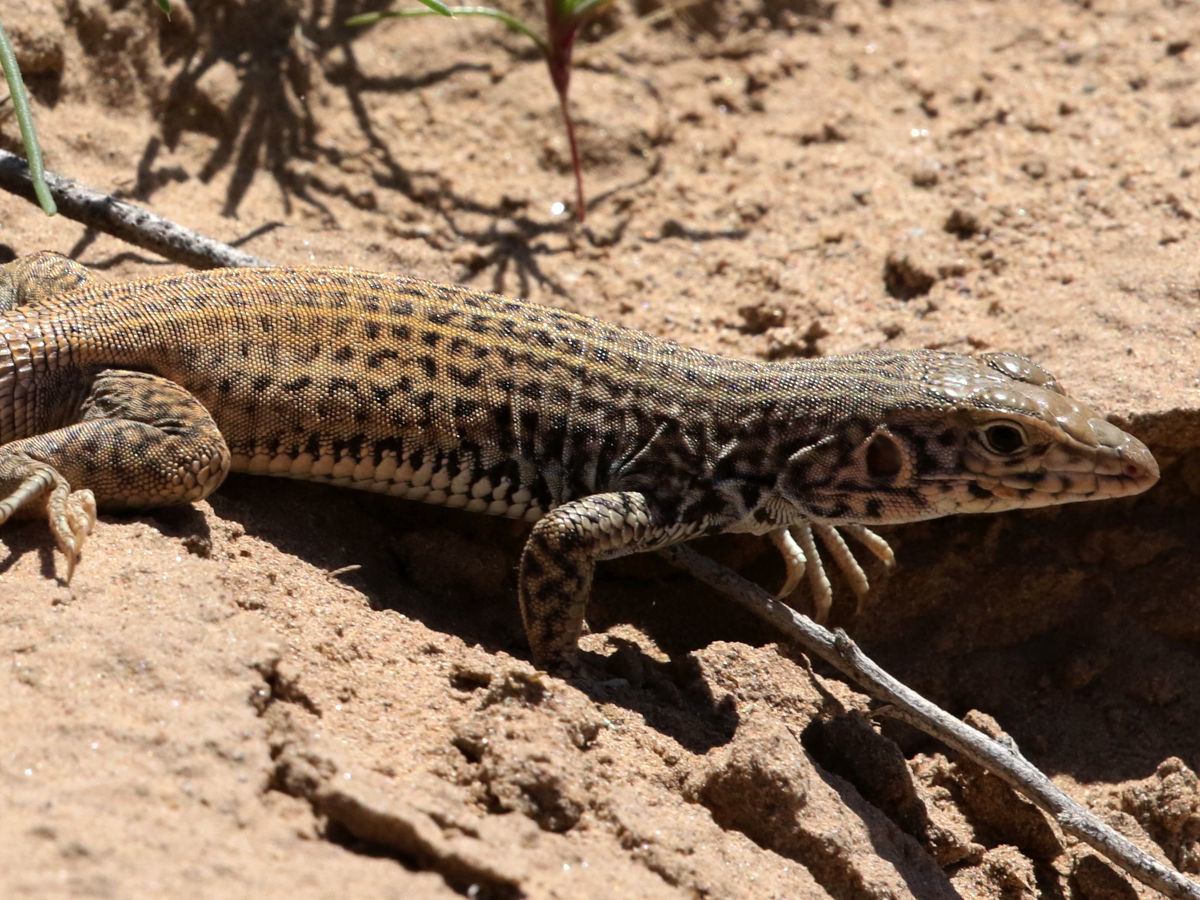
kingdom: Animalia
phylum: Chordata
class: Squamata
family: Teiidae
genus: Aspidoscelis
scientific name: Aspidoscelis tigris
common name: Tiger whiptail
